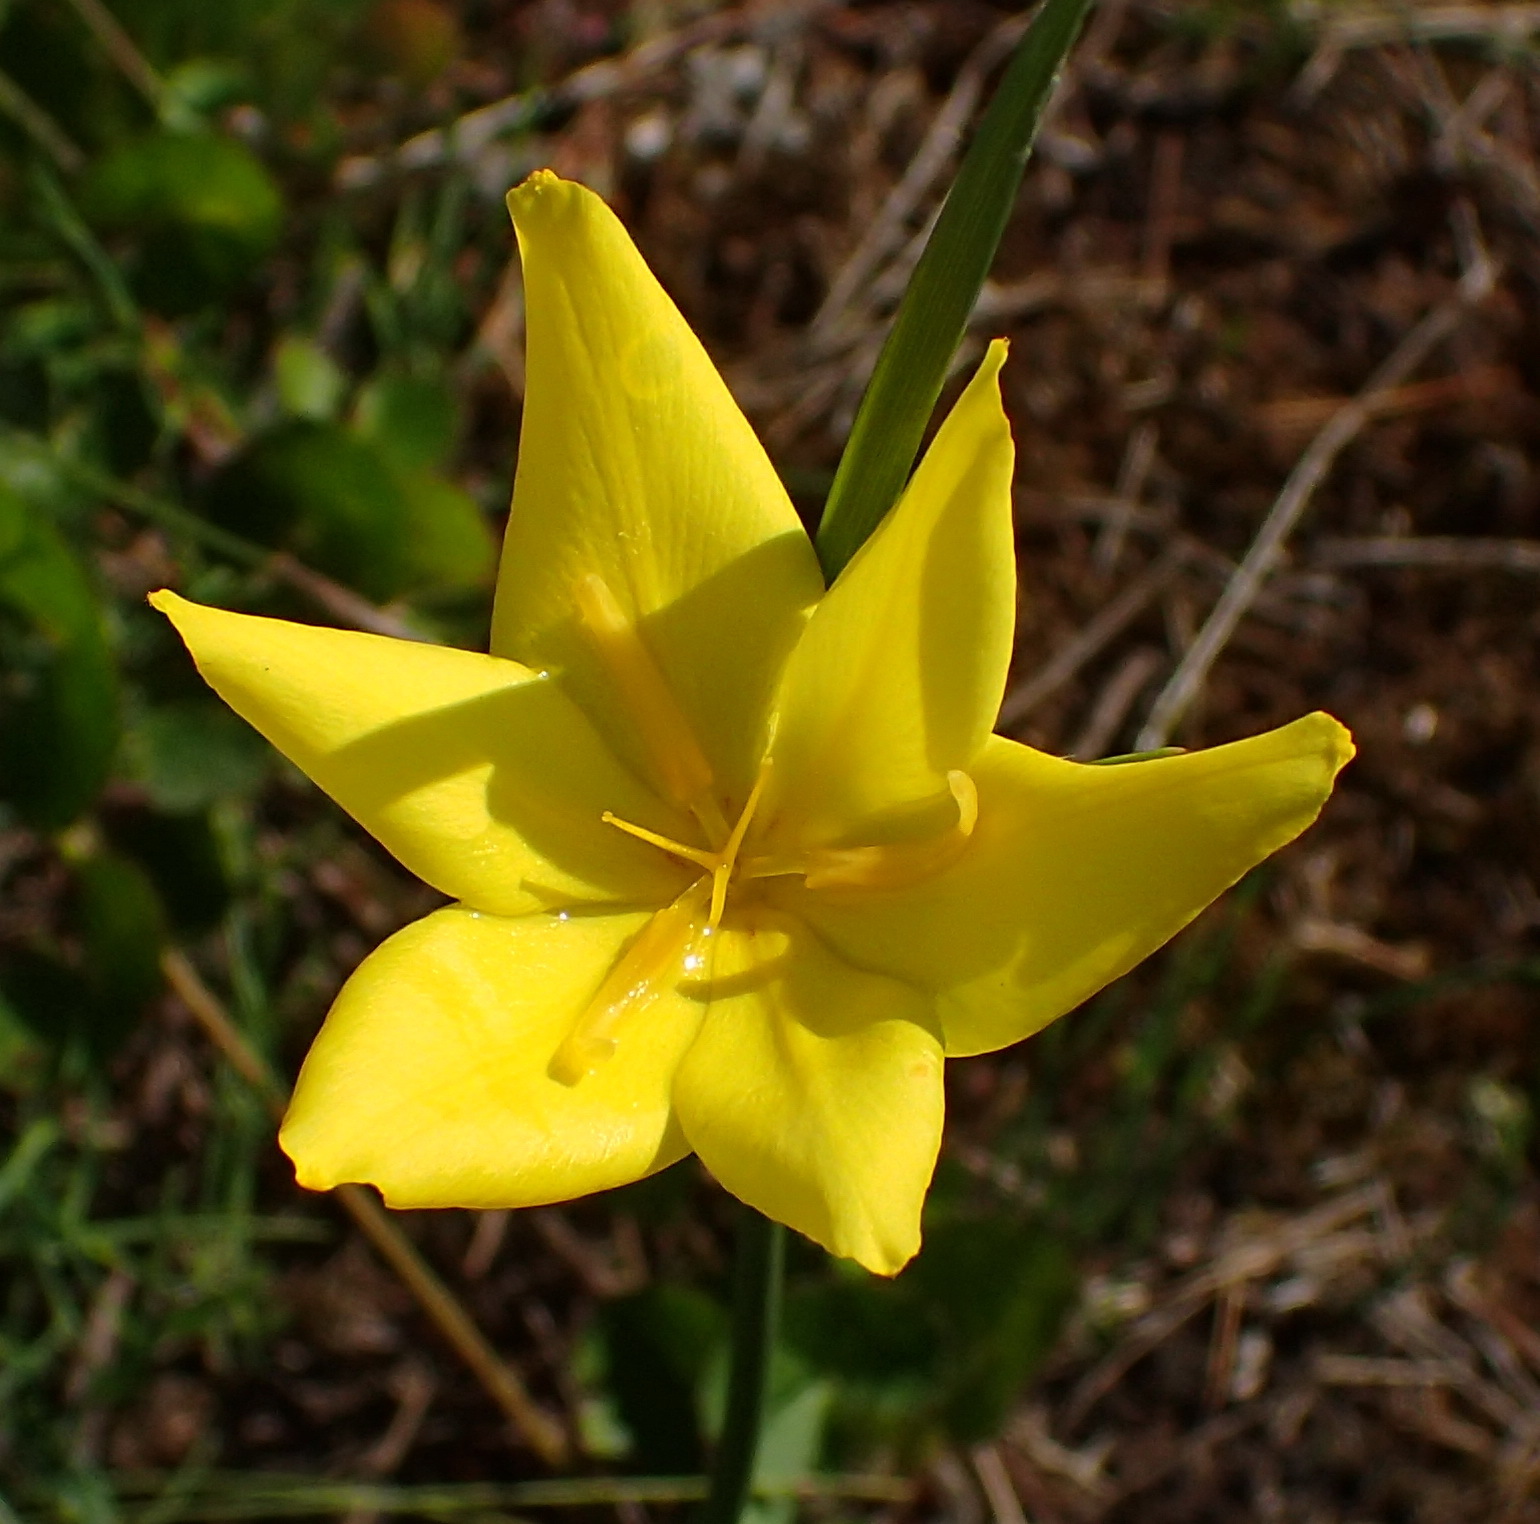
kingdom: Plantae
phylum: Tracheophyta
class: Liliopsida
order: Asparagales
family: Iridaceae
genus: Bobartia
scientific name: Bobartia aphylla
